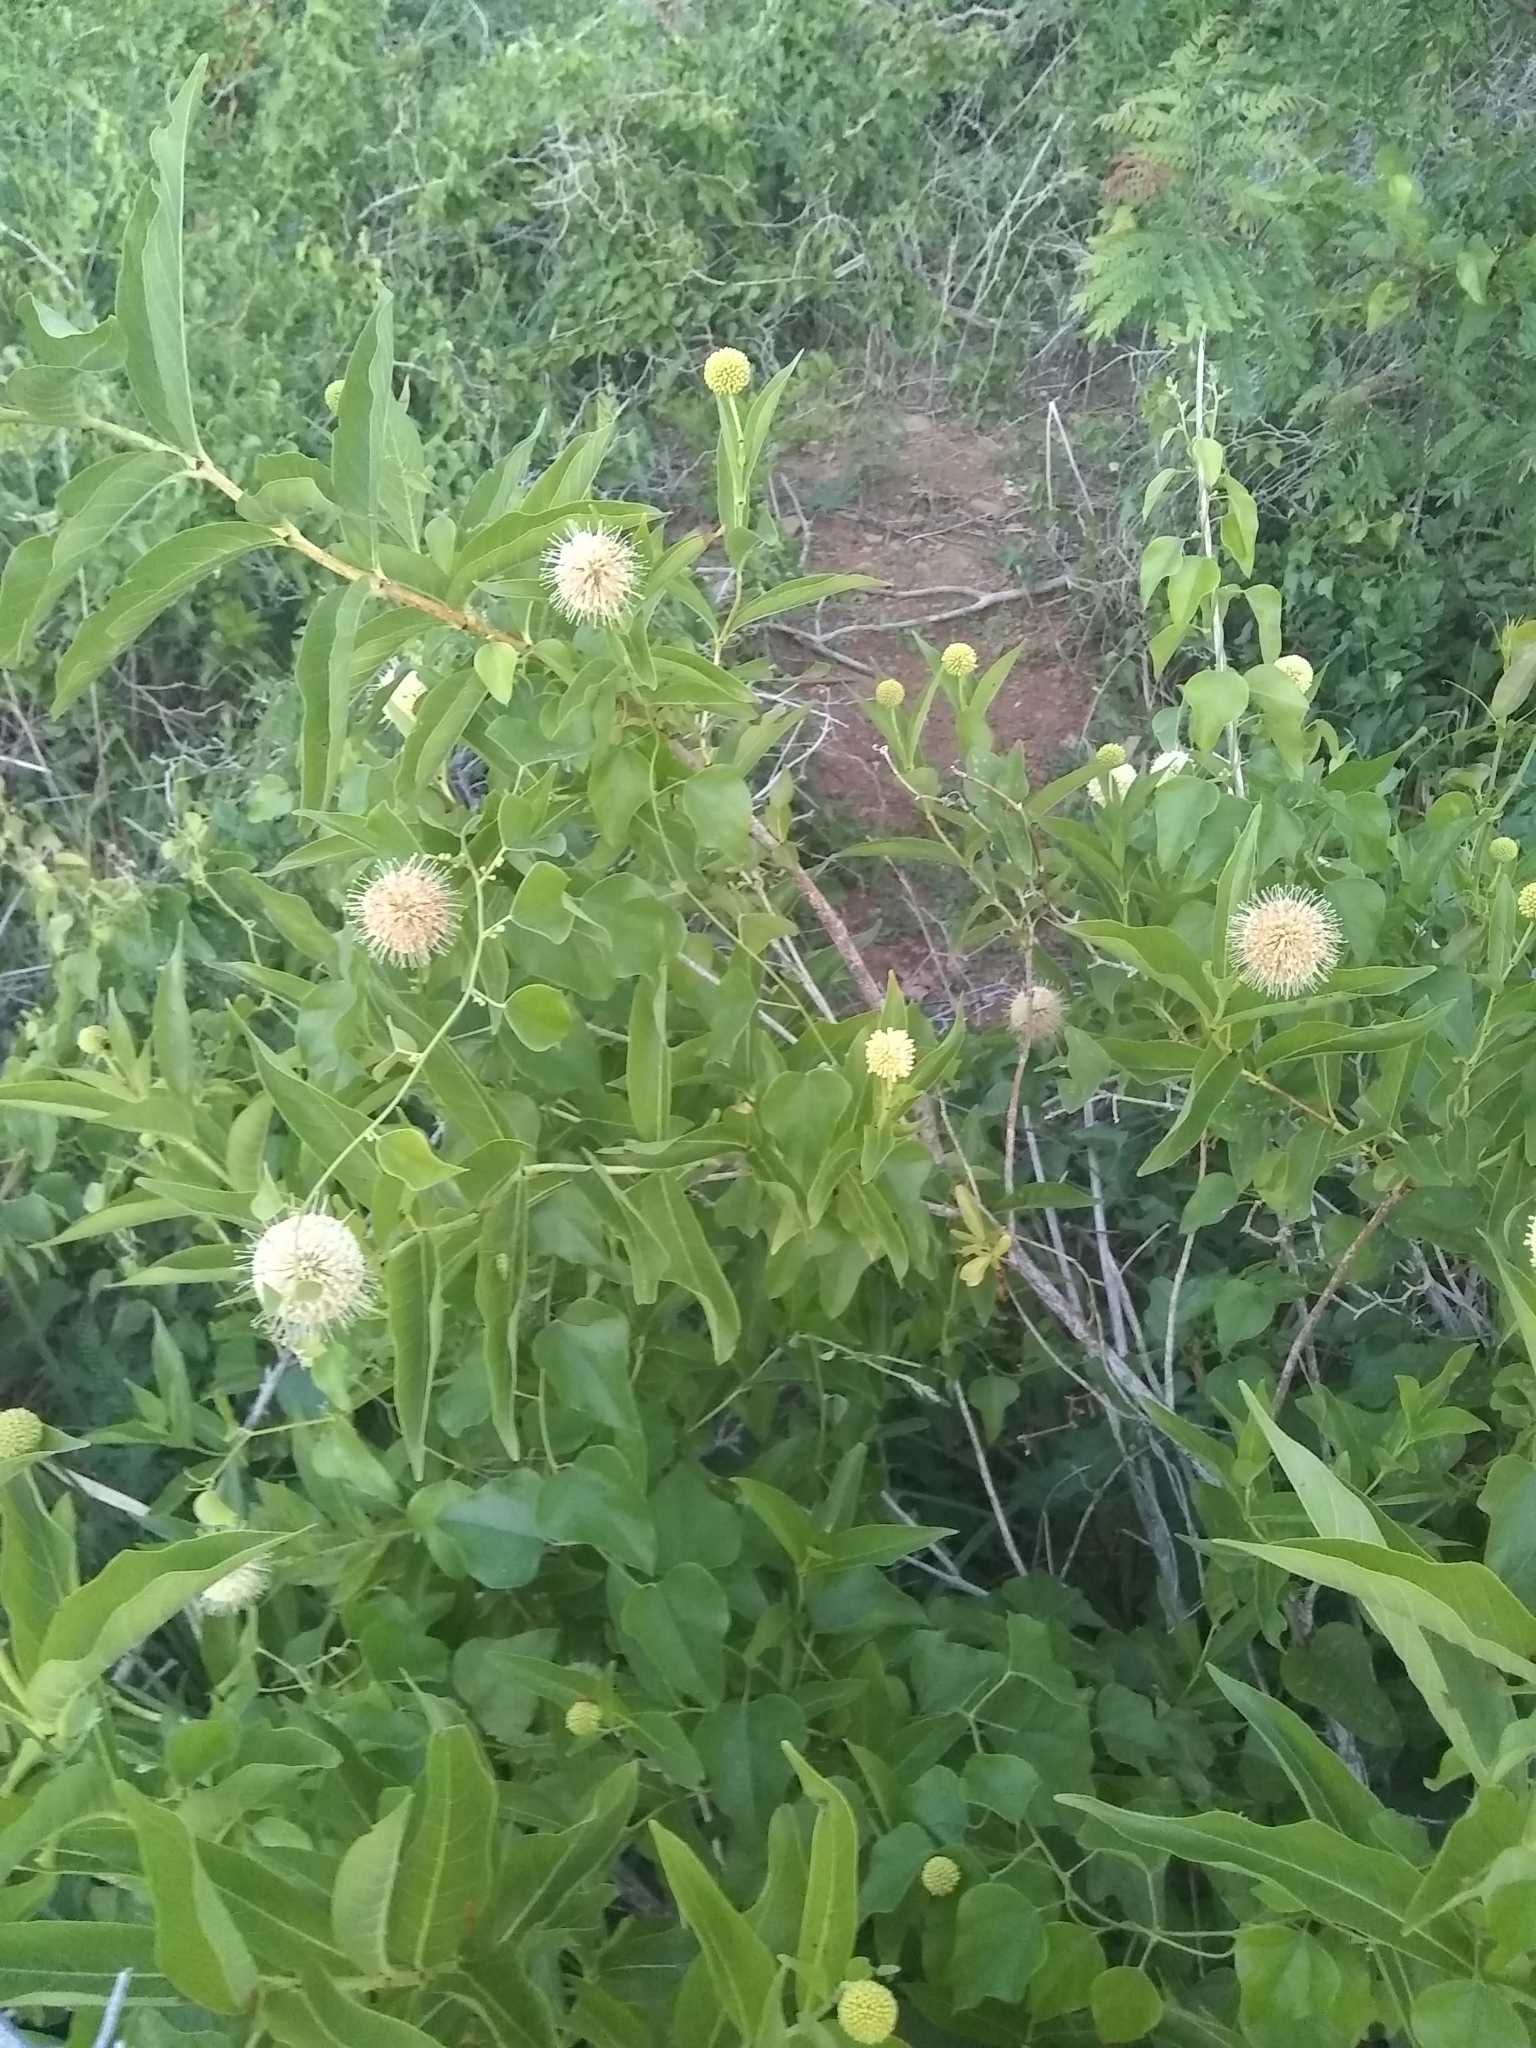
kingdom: Plantae
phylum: Tracheophyta
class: Magnoliopsida
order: Gentianales
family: Rubiaceae
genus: Cephalanthus
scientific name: Cephalanthus occidentalis
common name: Button-willow
